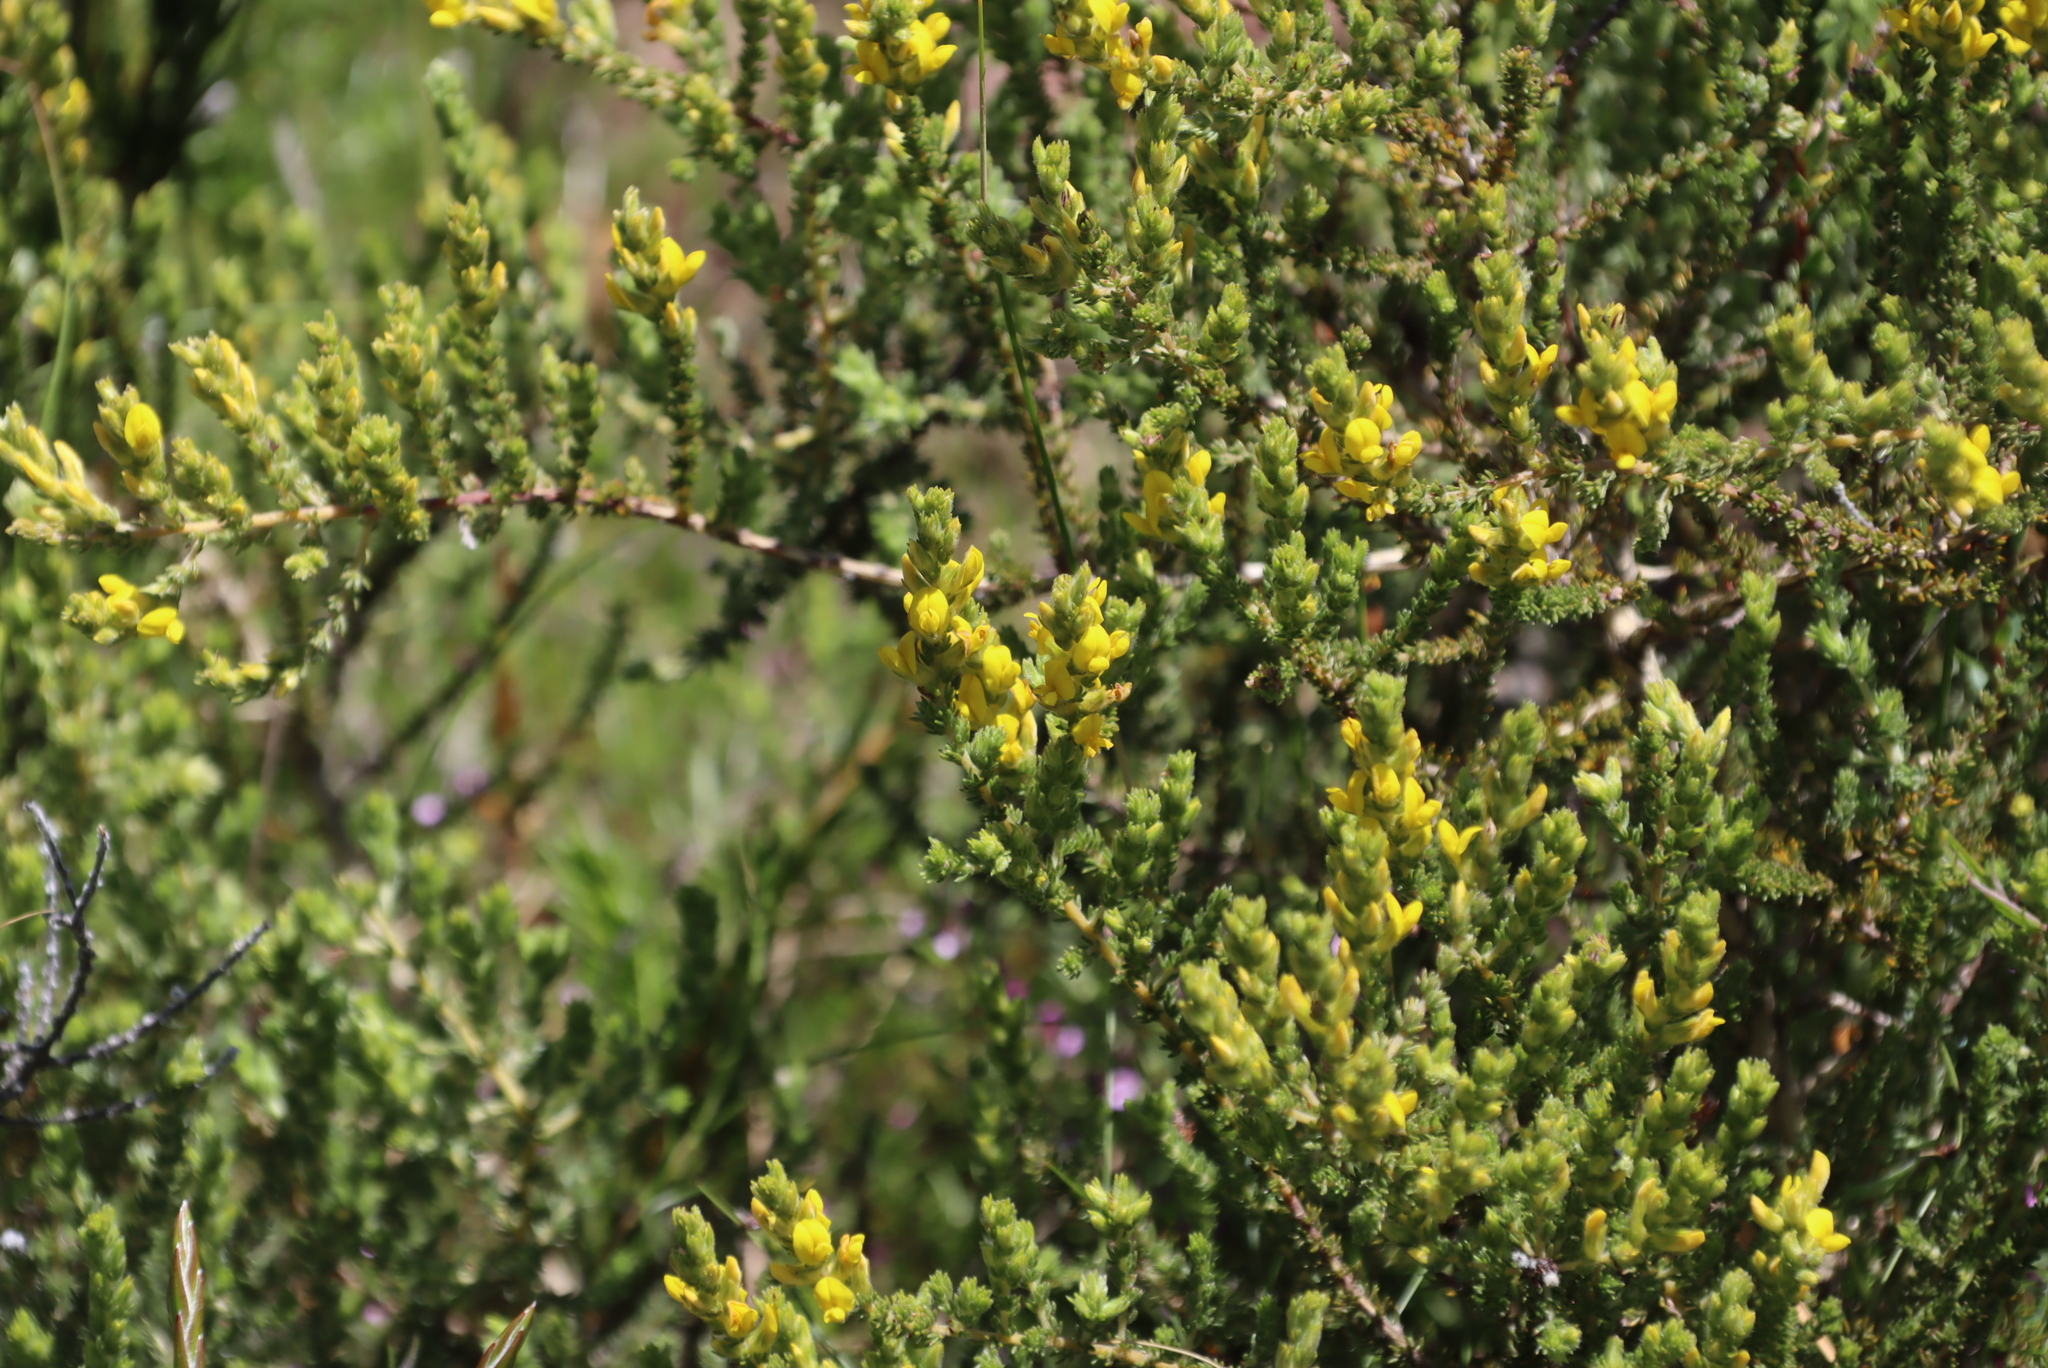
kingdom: Plantae
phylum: Tracheophyta
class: Magnoliopsida
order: Fabales
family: Fabaceae
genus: Aspalathus
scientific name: Aspalathus ericifolia
